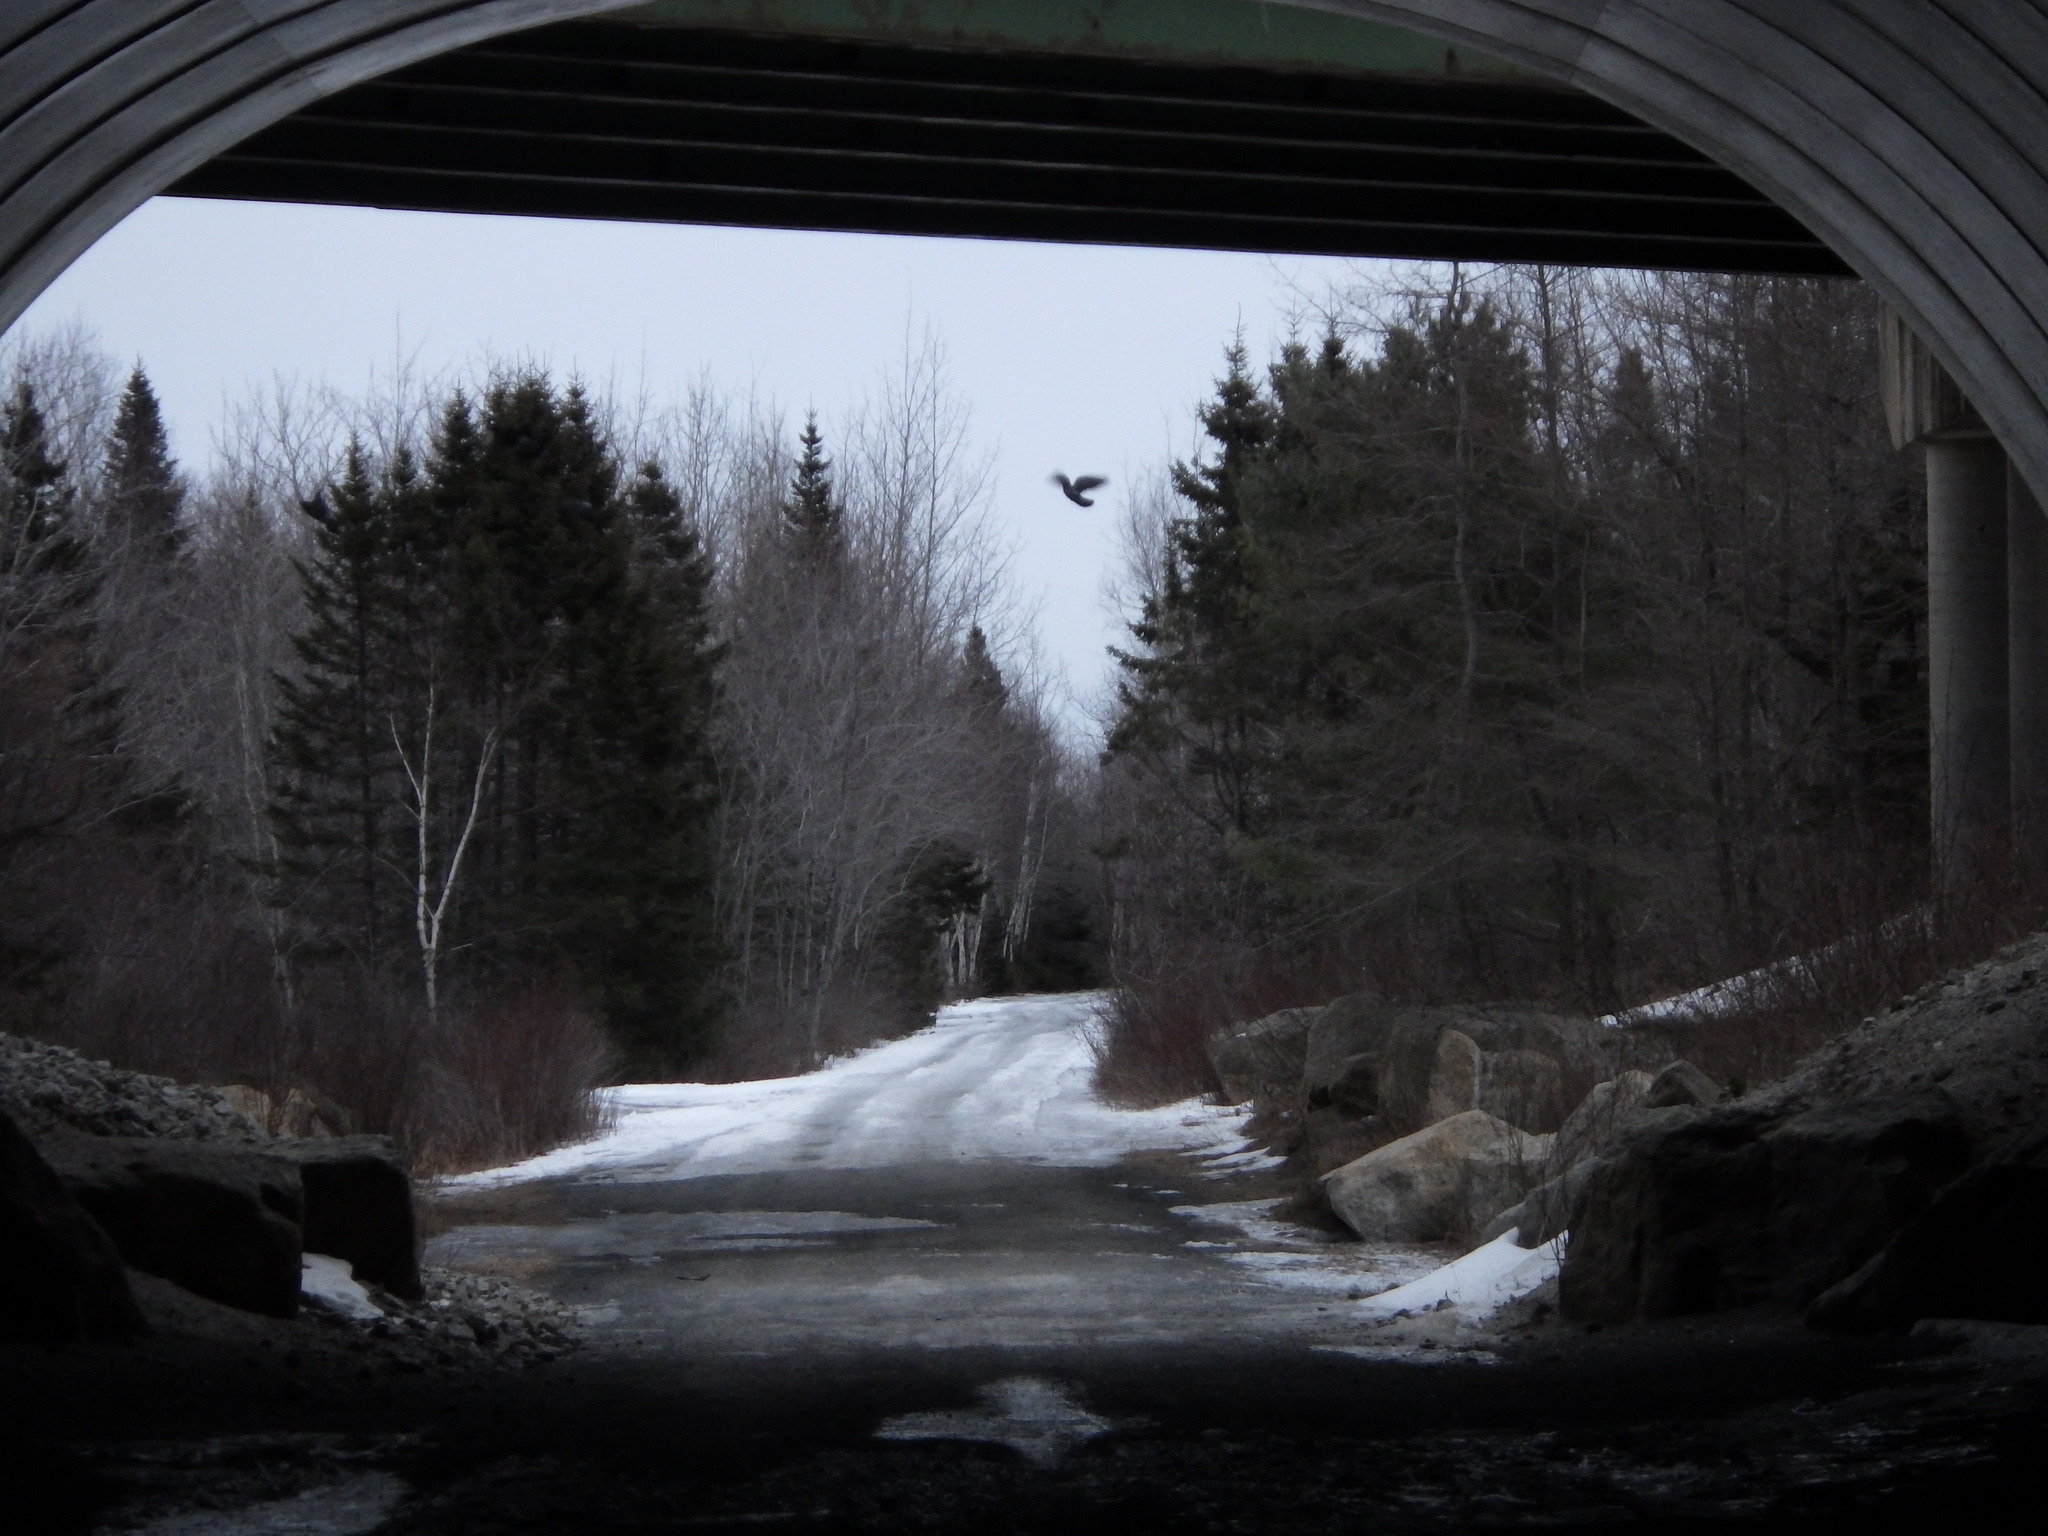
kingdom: Animalia
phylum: Chordata
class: Aves
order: Columbiformes
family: Columbidae
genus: Columba
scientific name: Columba livia
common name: Rock pigeon
